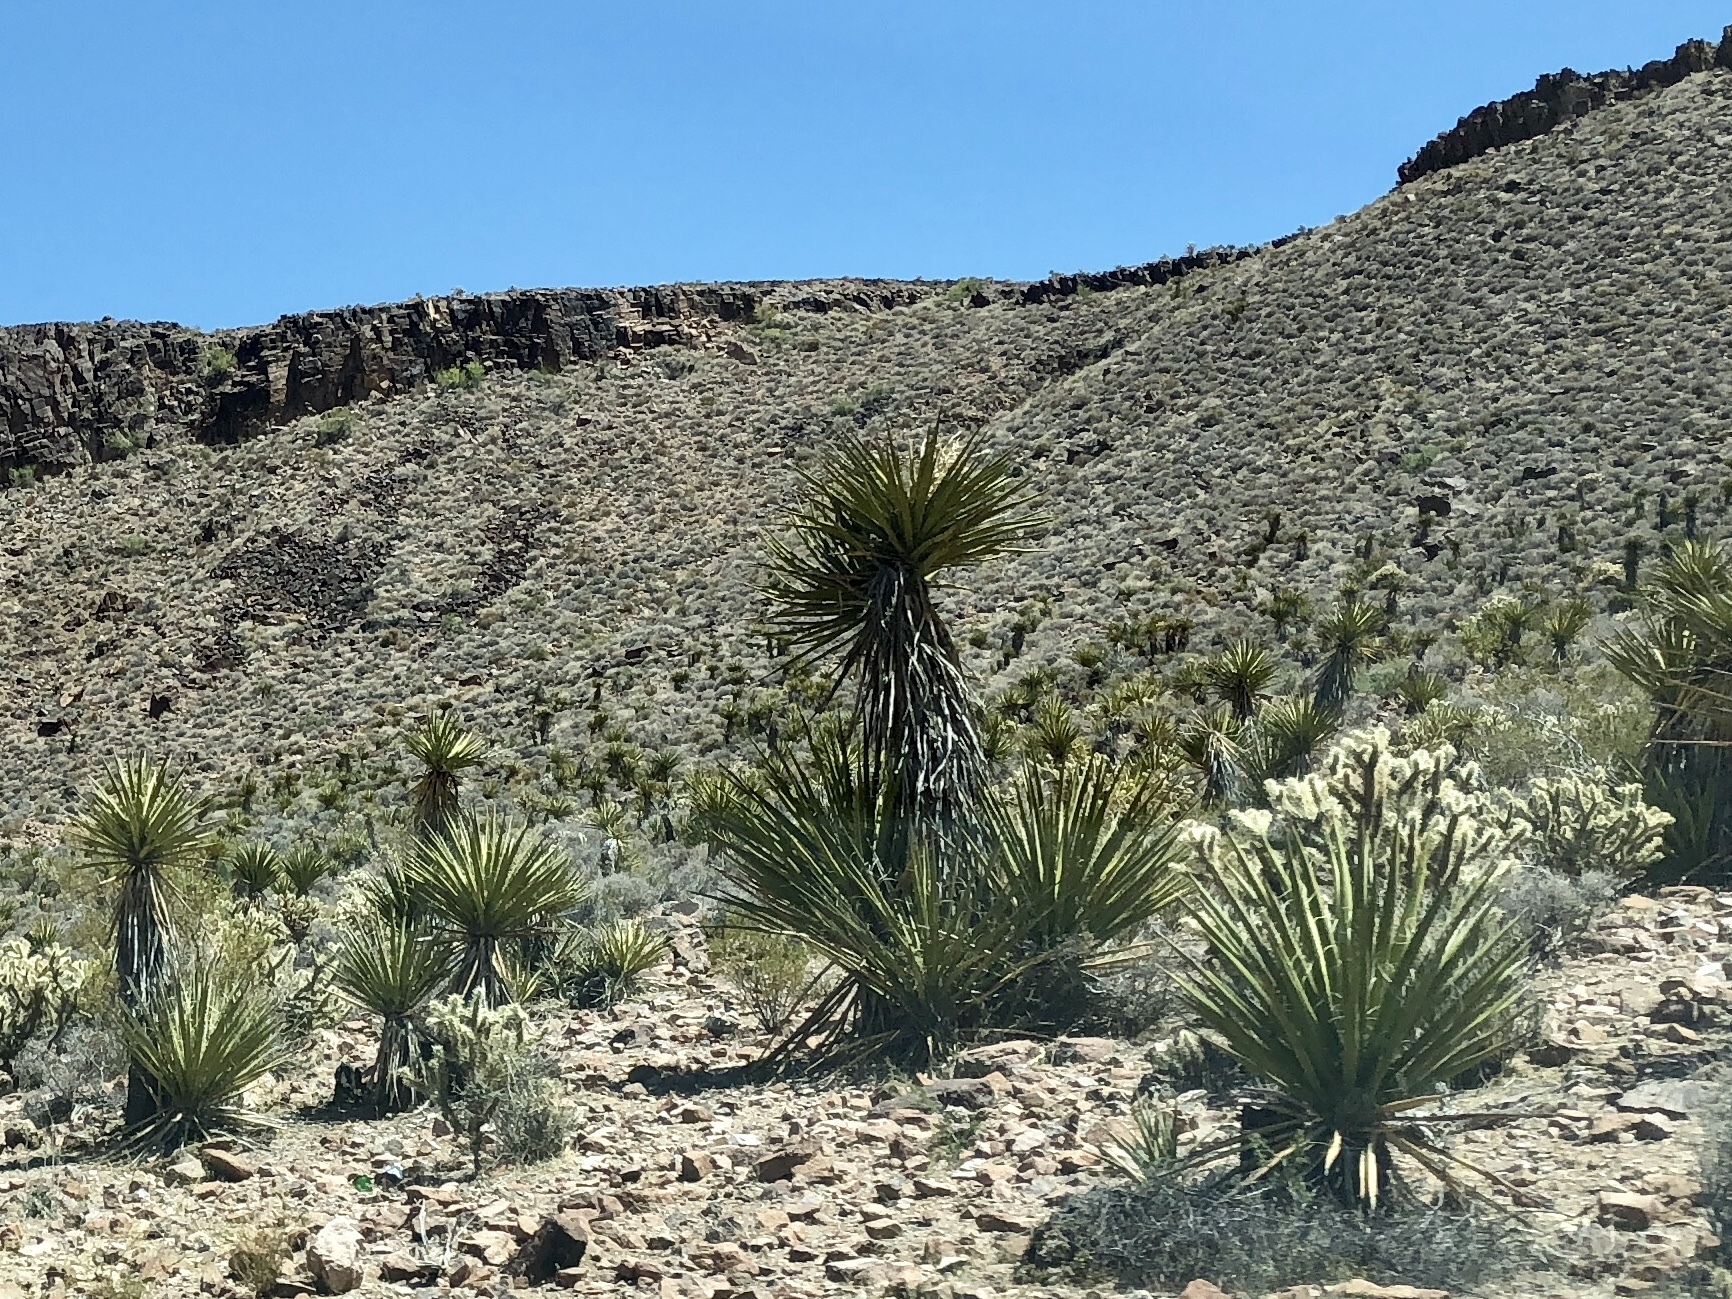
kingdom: Plantae
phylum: Tracheophyta
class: Liliopsida
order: Asparagales
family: Asparagaceae
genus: Yucca
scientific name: Yucca schidigera
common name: Mojave yucca
